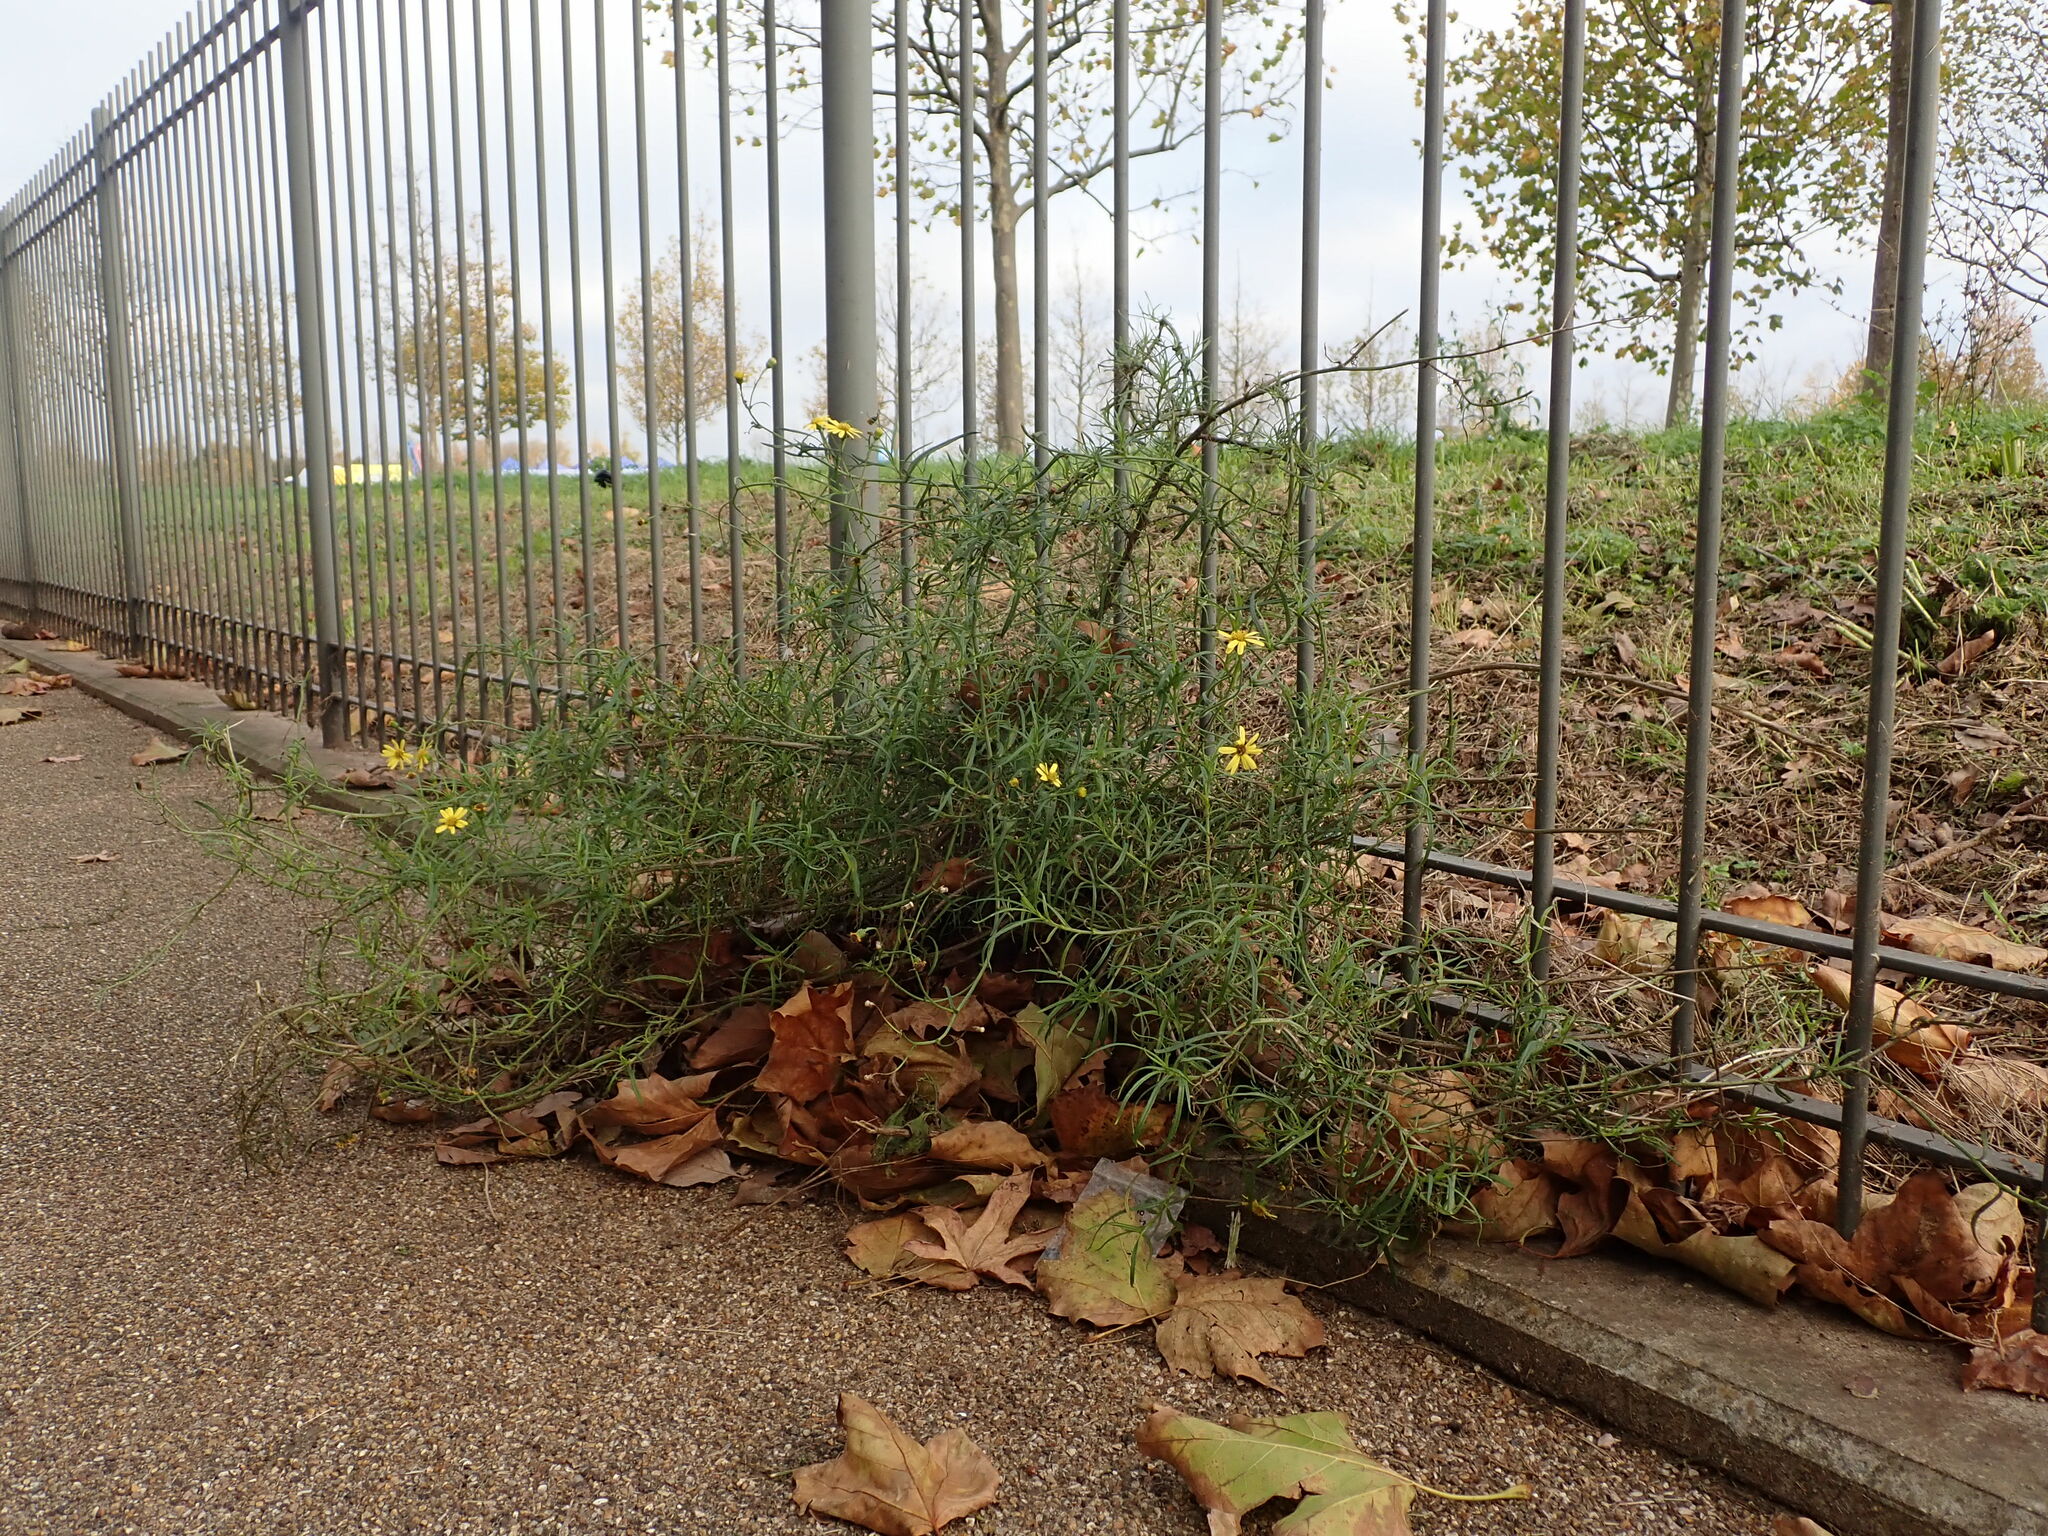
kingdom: Plantae
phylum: Tracheophyta
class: Magnoliopsida
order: Asterales
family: Asteraceae
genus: Senecio
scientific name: Senecio inaequidens
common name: Narrow-leaved ragwort
